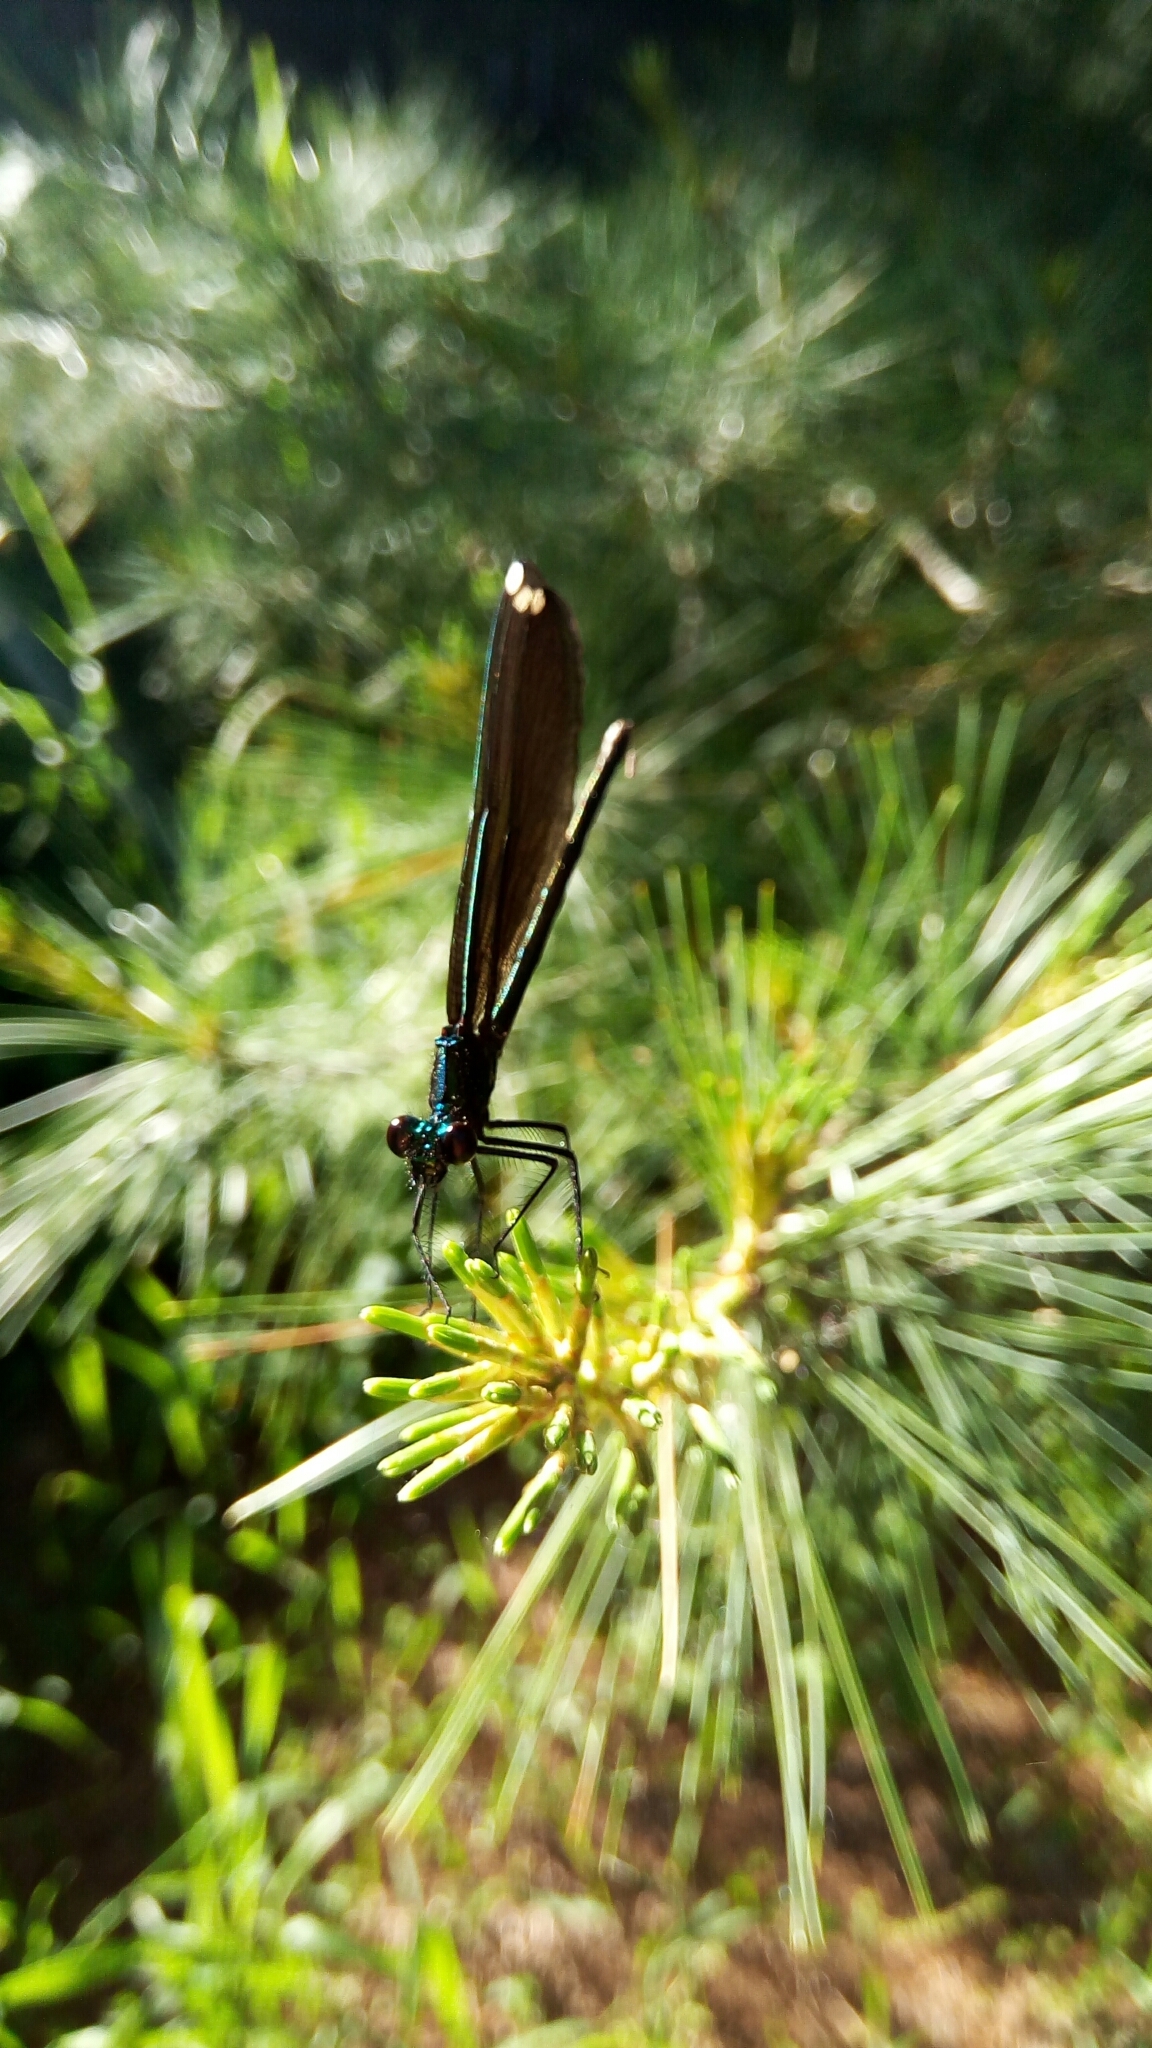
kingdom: Animalia
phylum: Arthropoda
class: Insecta
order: Odonata
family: Calopterygidae
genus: Calopteryx
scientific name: Calopteryx maculata
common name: Ebony jewelwing
